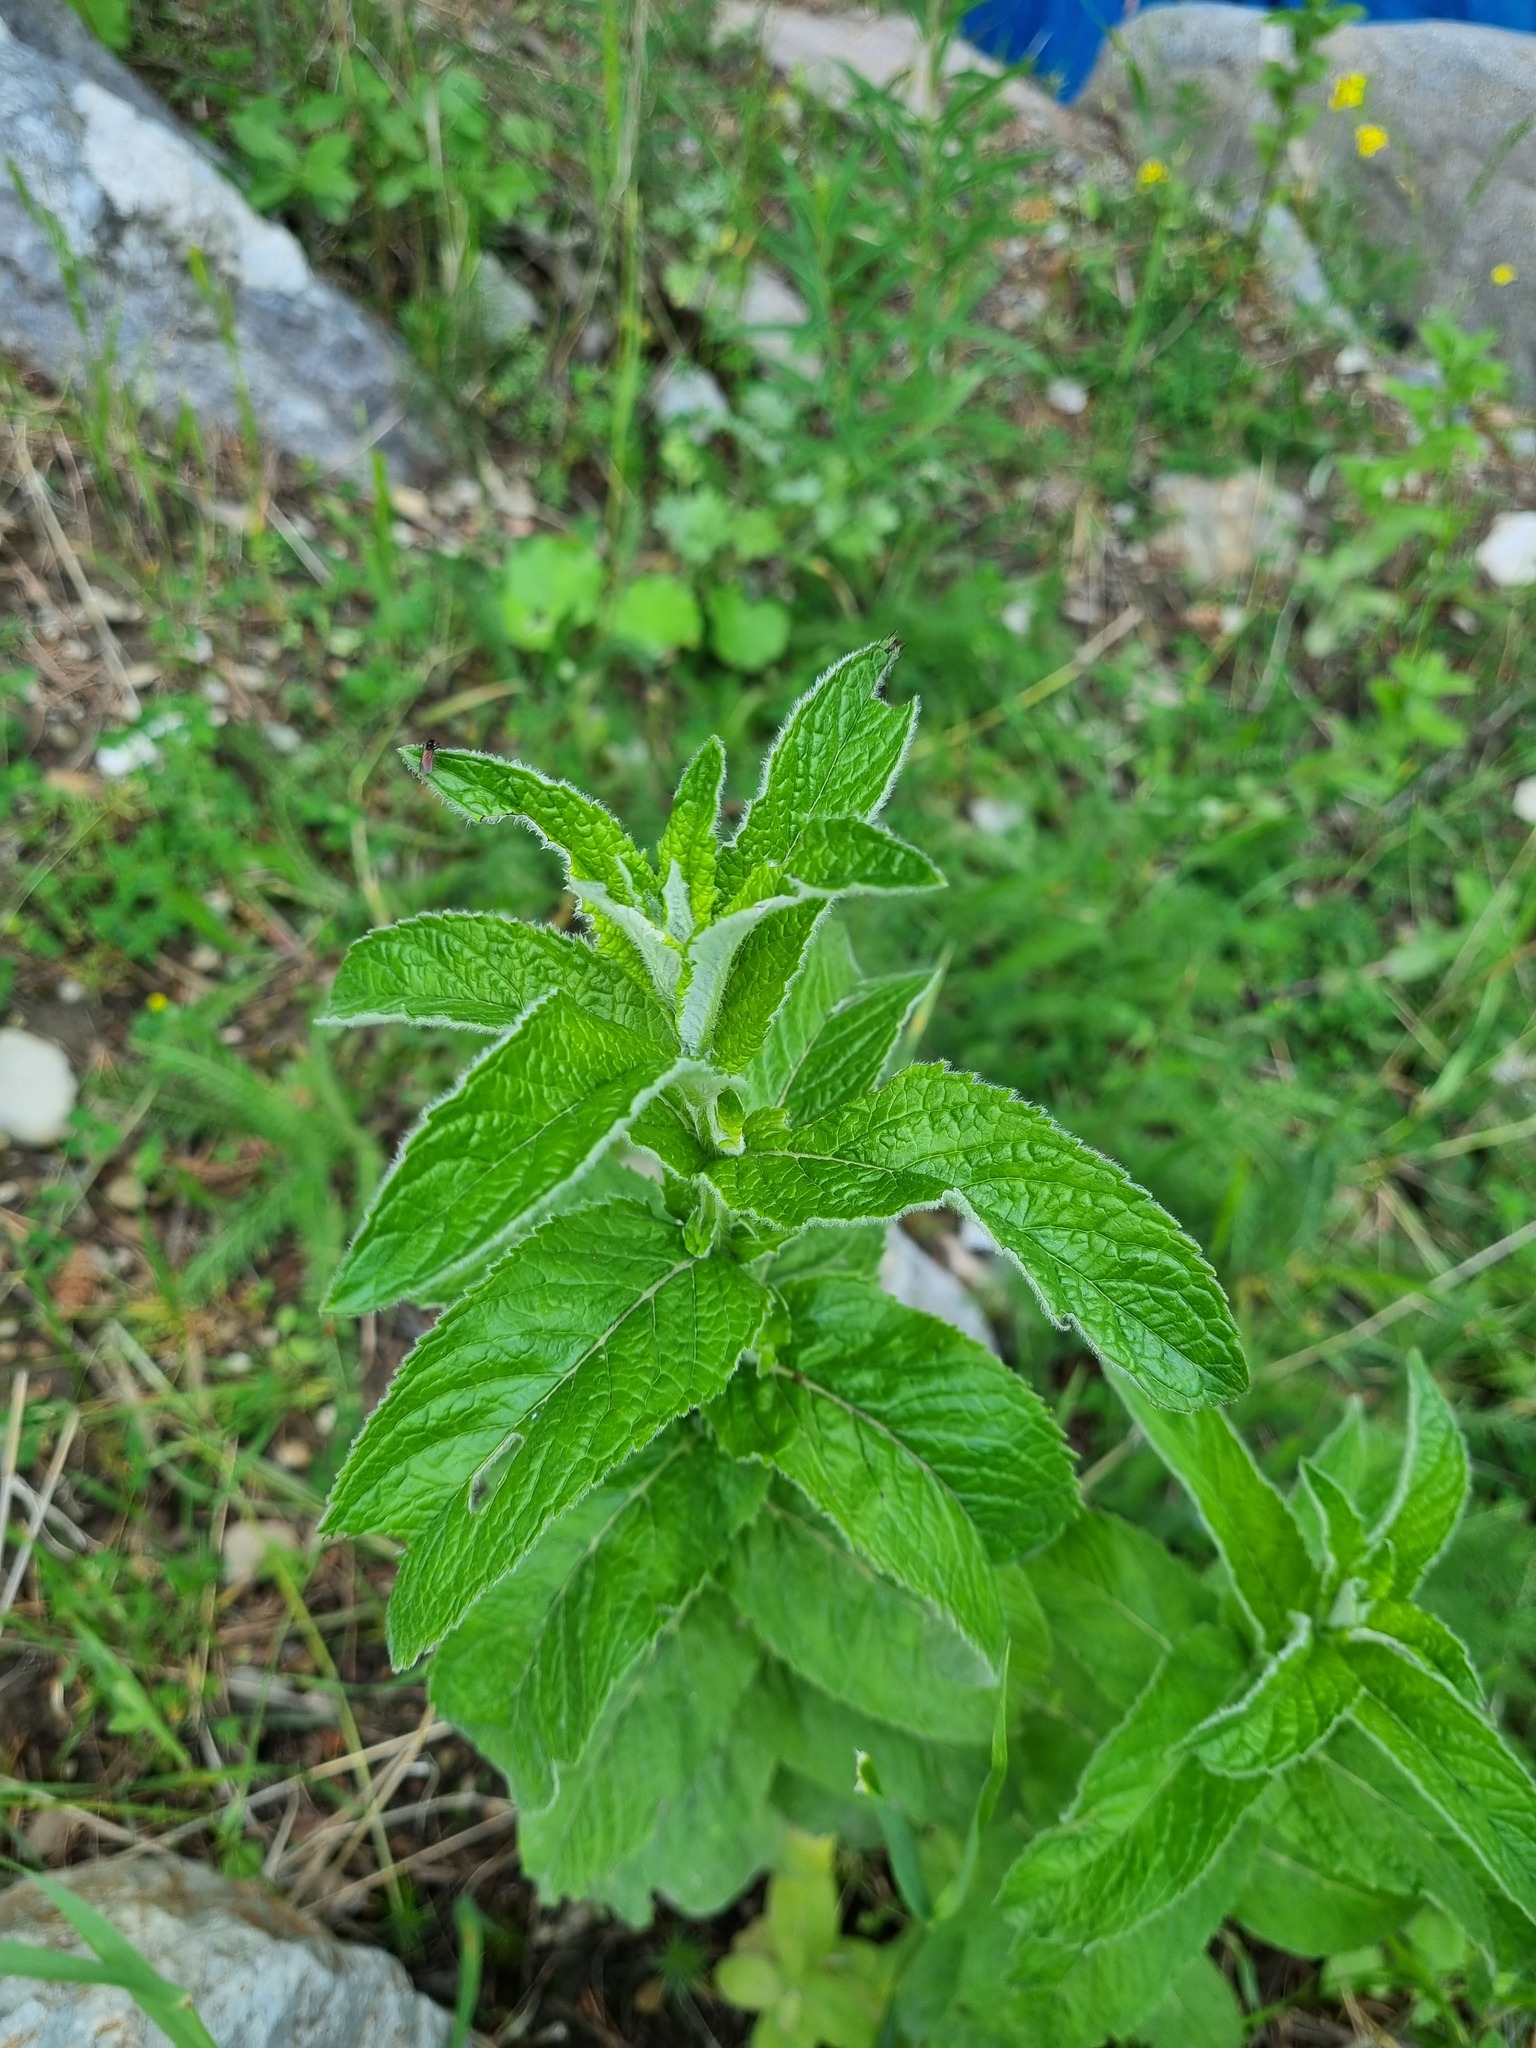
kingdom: Plantae
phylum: Tracheophyta
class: Magnoliopsida
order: Lamiales
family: Lamiaceae
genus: Mentha
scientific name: Mentha longifolia
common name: Horse mint
